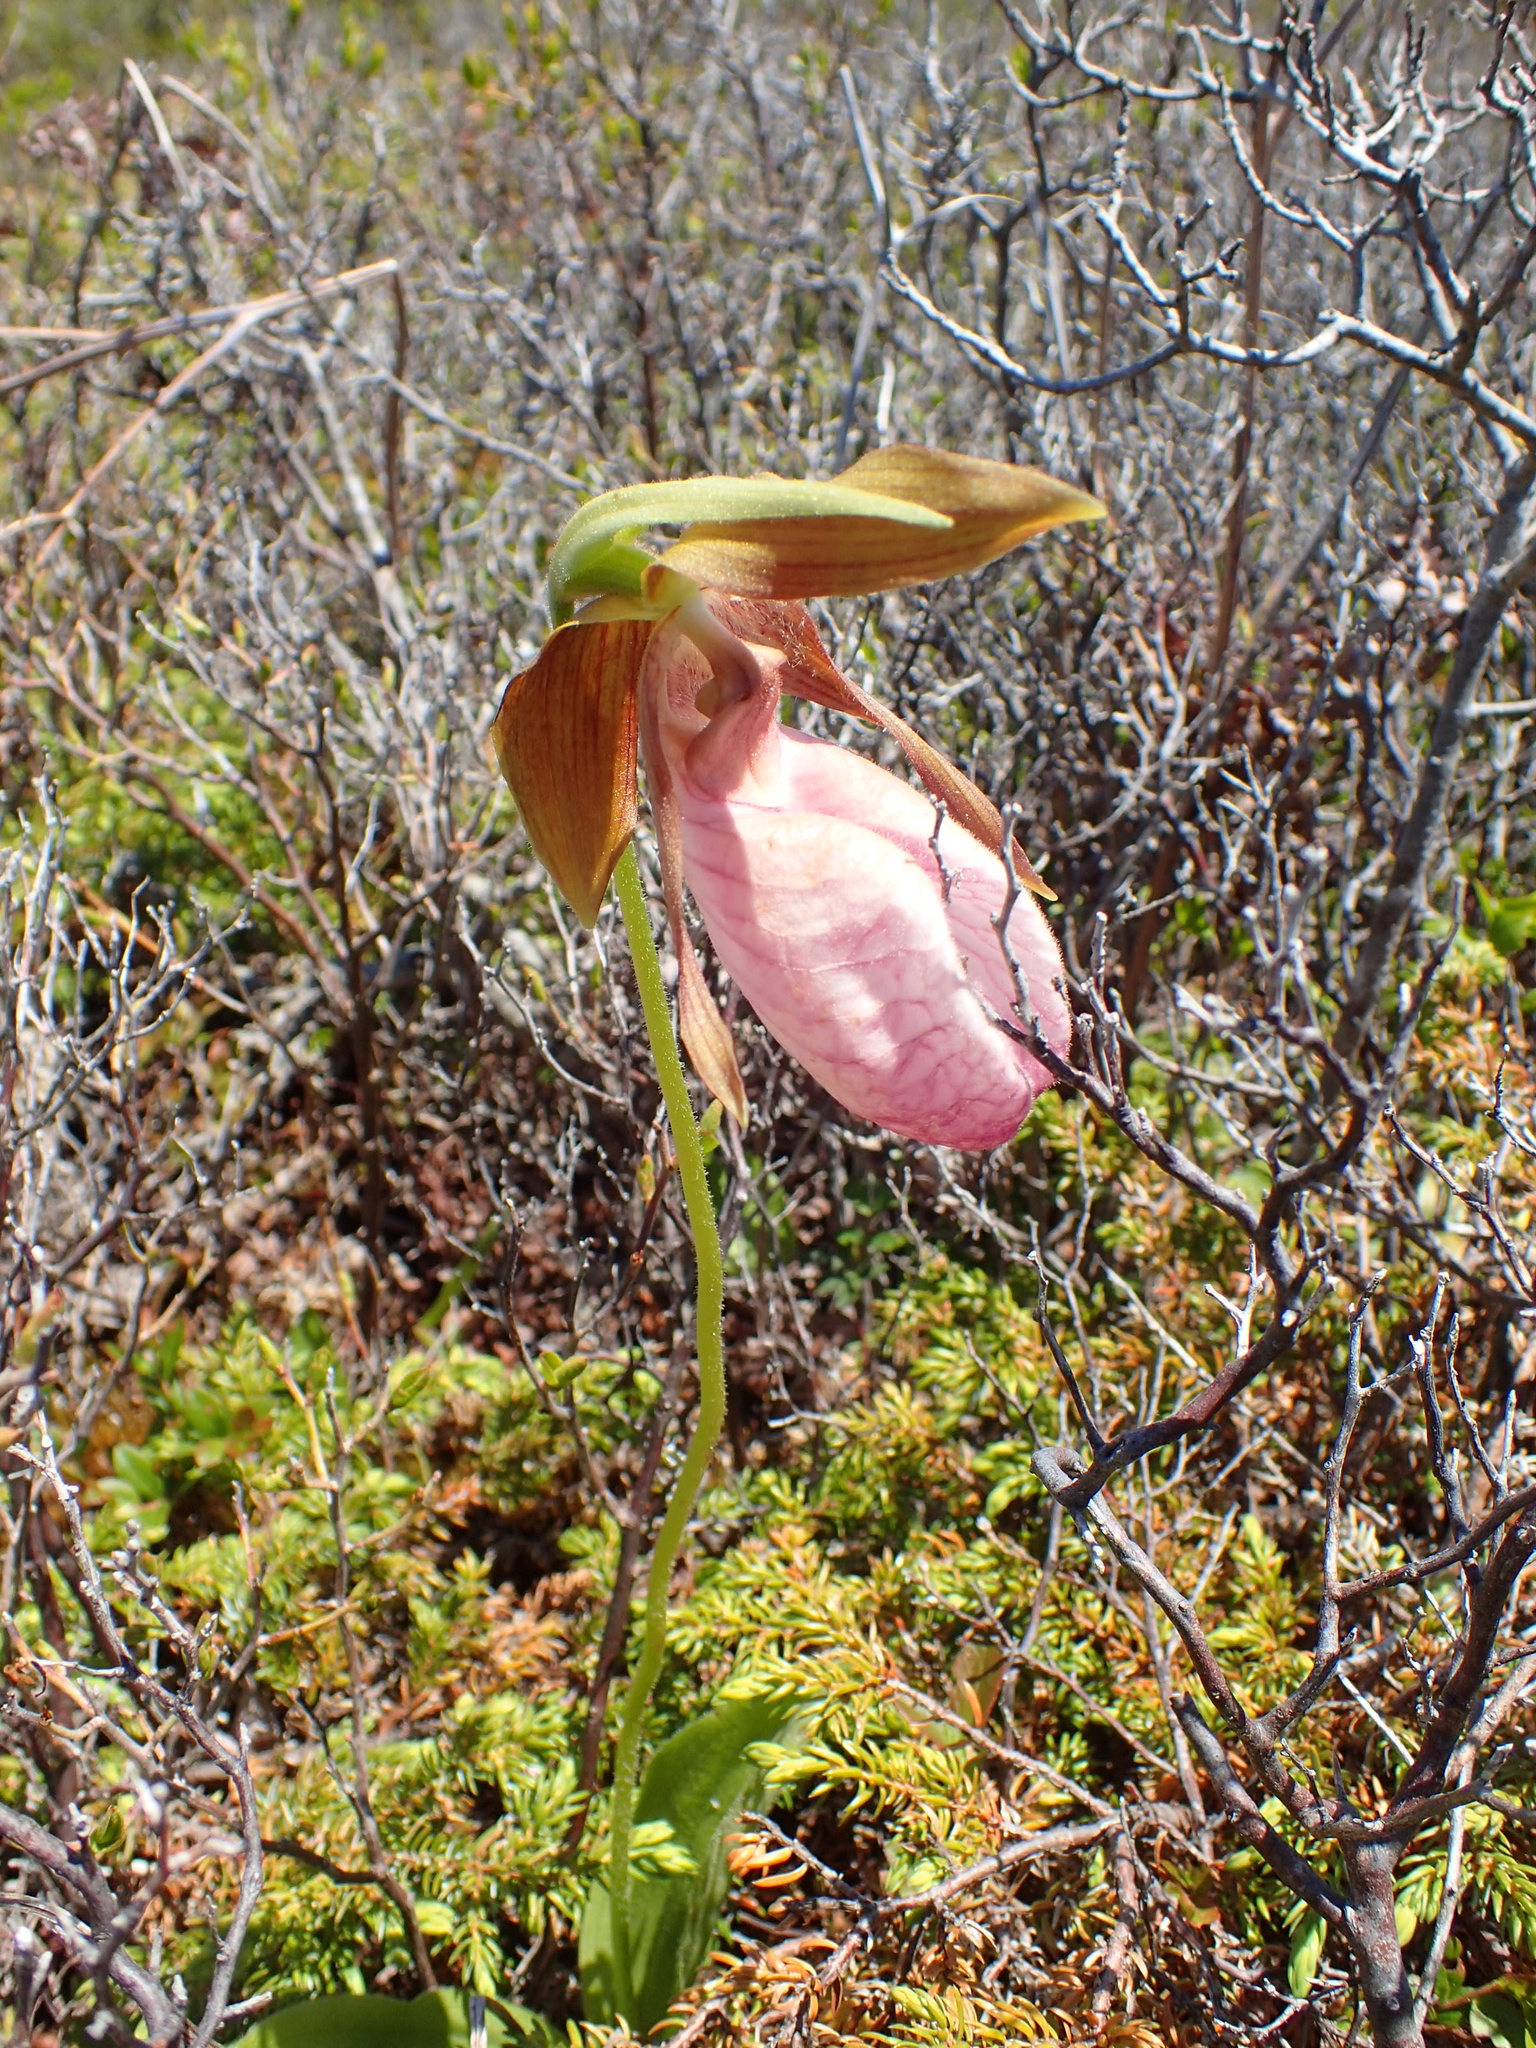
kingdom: Plantae
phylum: Tracheophyta
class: Liliopsida
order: Asparagales
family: Orchidaceae
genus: Cypripedium
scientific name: Cypripedium acaule
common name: Pink lady's-slipper
